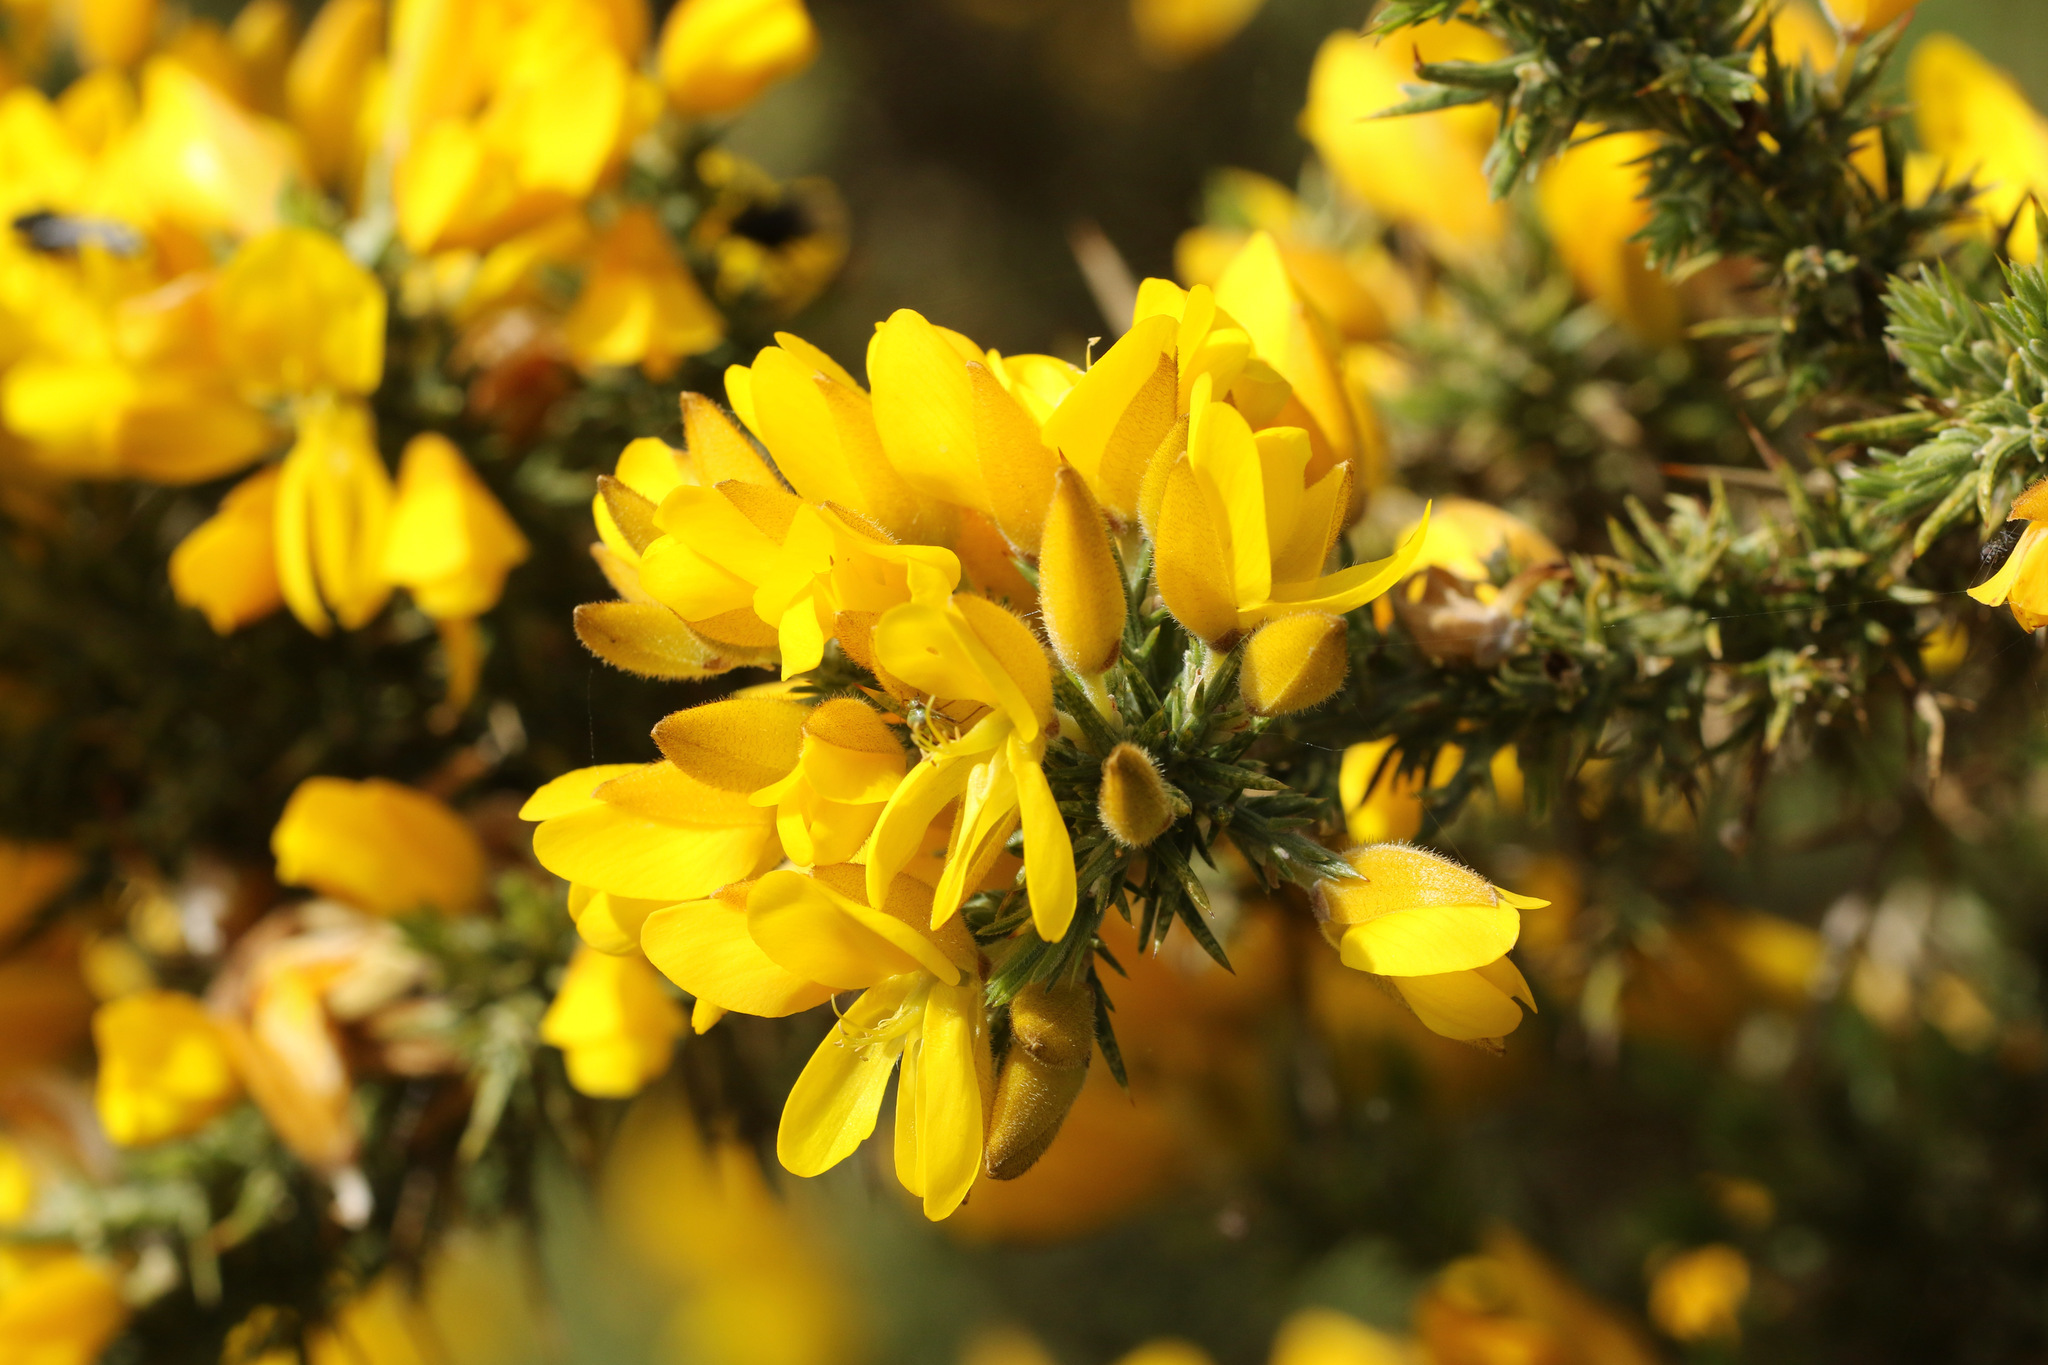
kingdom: Plantae
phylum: Tracheophyta
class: Magnoliopsida
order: Fabales
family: Fabaceae
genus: Ulex
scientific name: Ulex europaeus
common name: Common gorse
